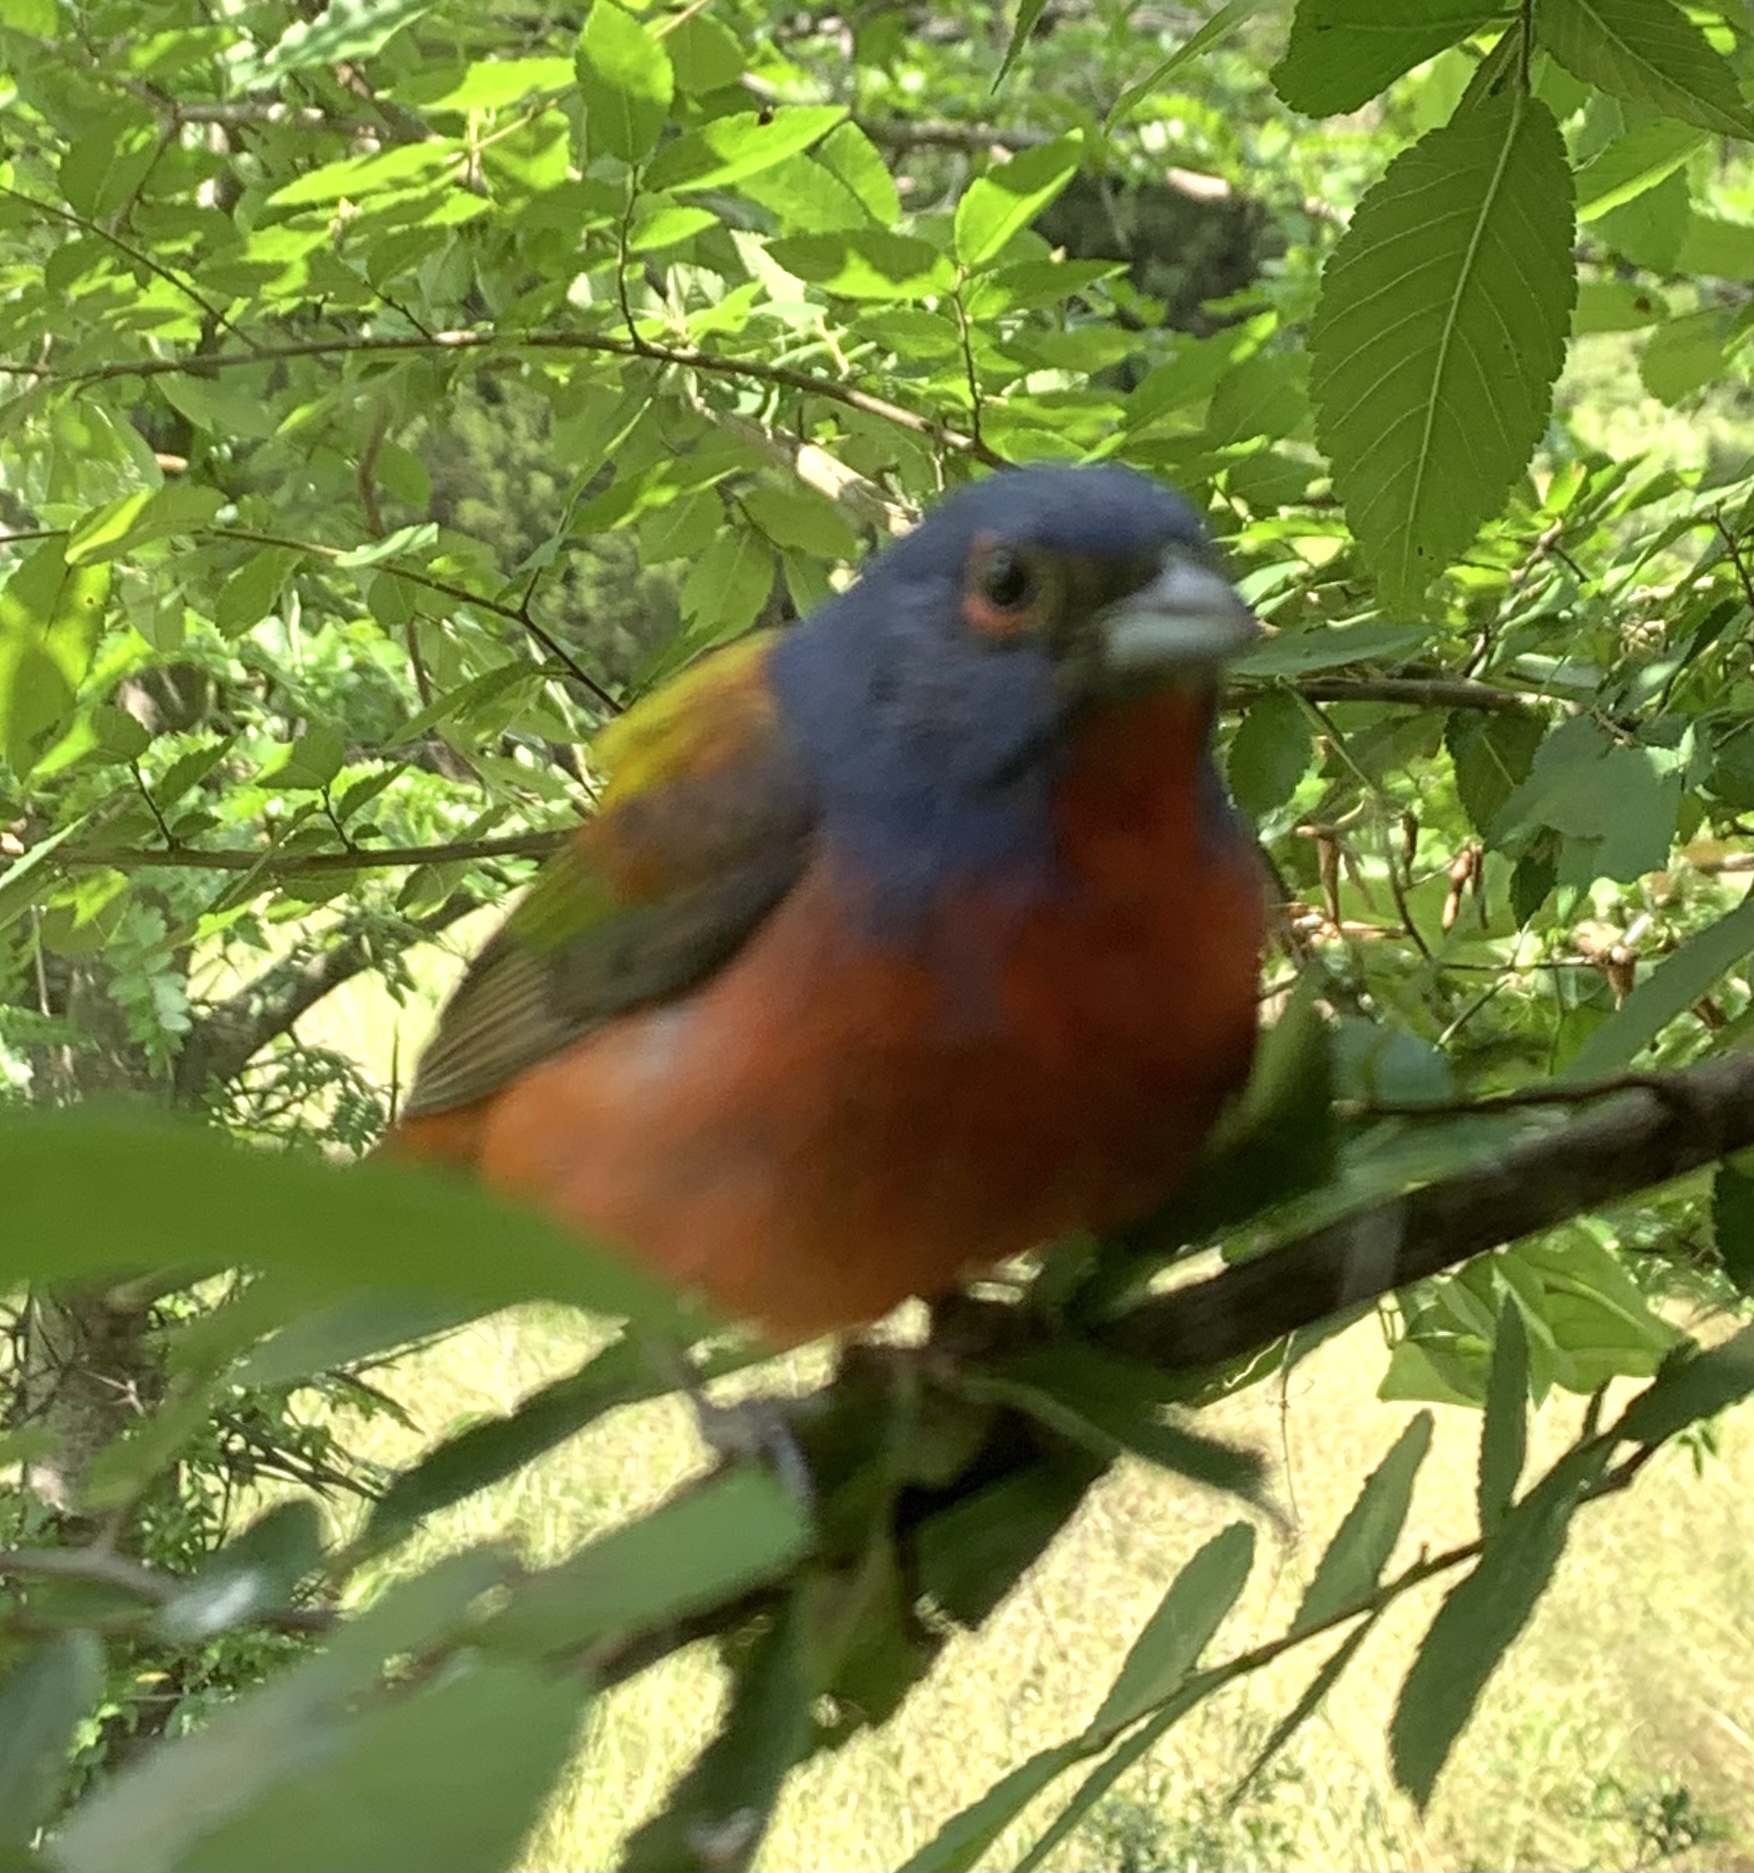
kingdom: Animalia
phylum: Chordata
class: Aves
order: Passeriformes
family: Cardinalidae
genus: Passerina
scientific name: Passerina ciris
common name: Painted bunting
